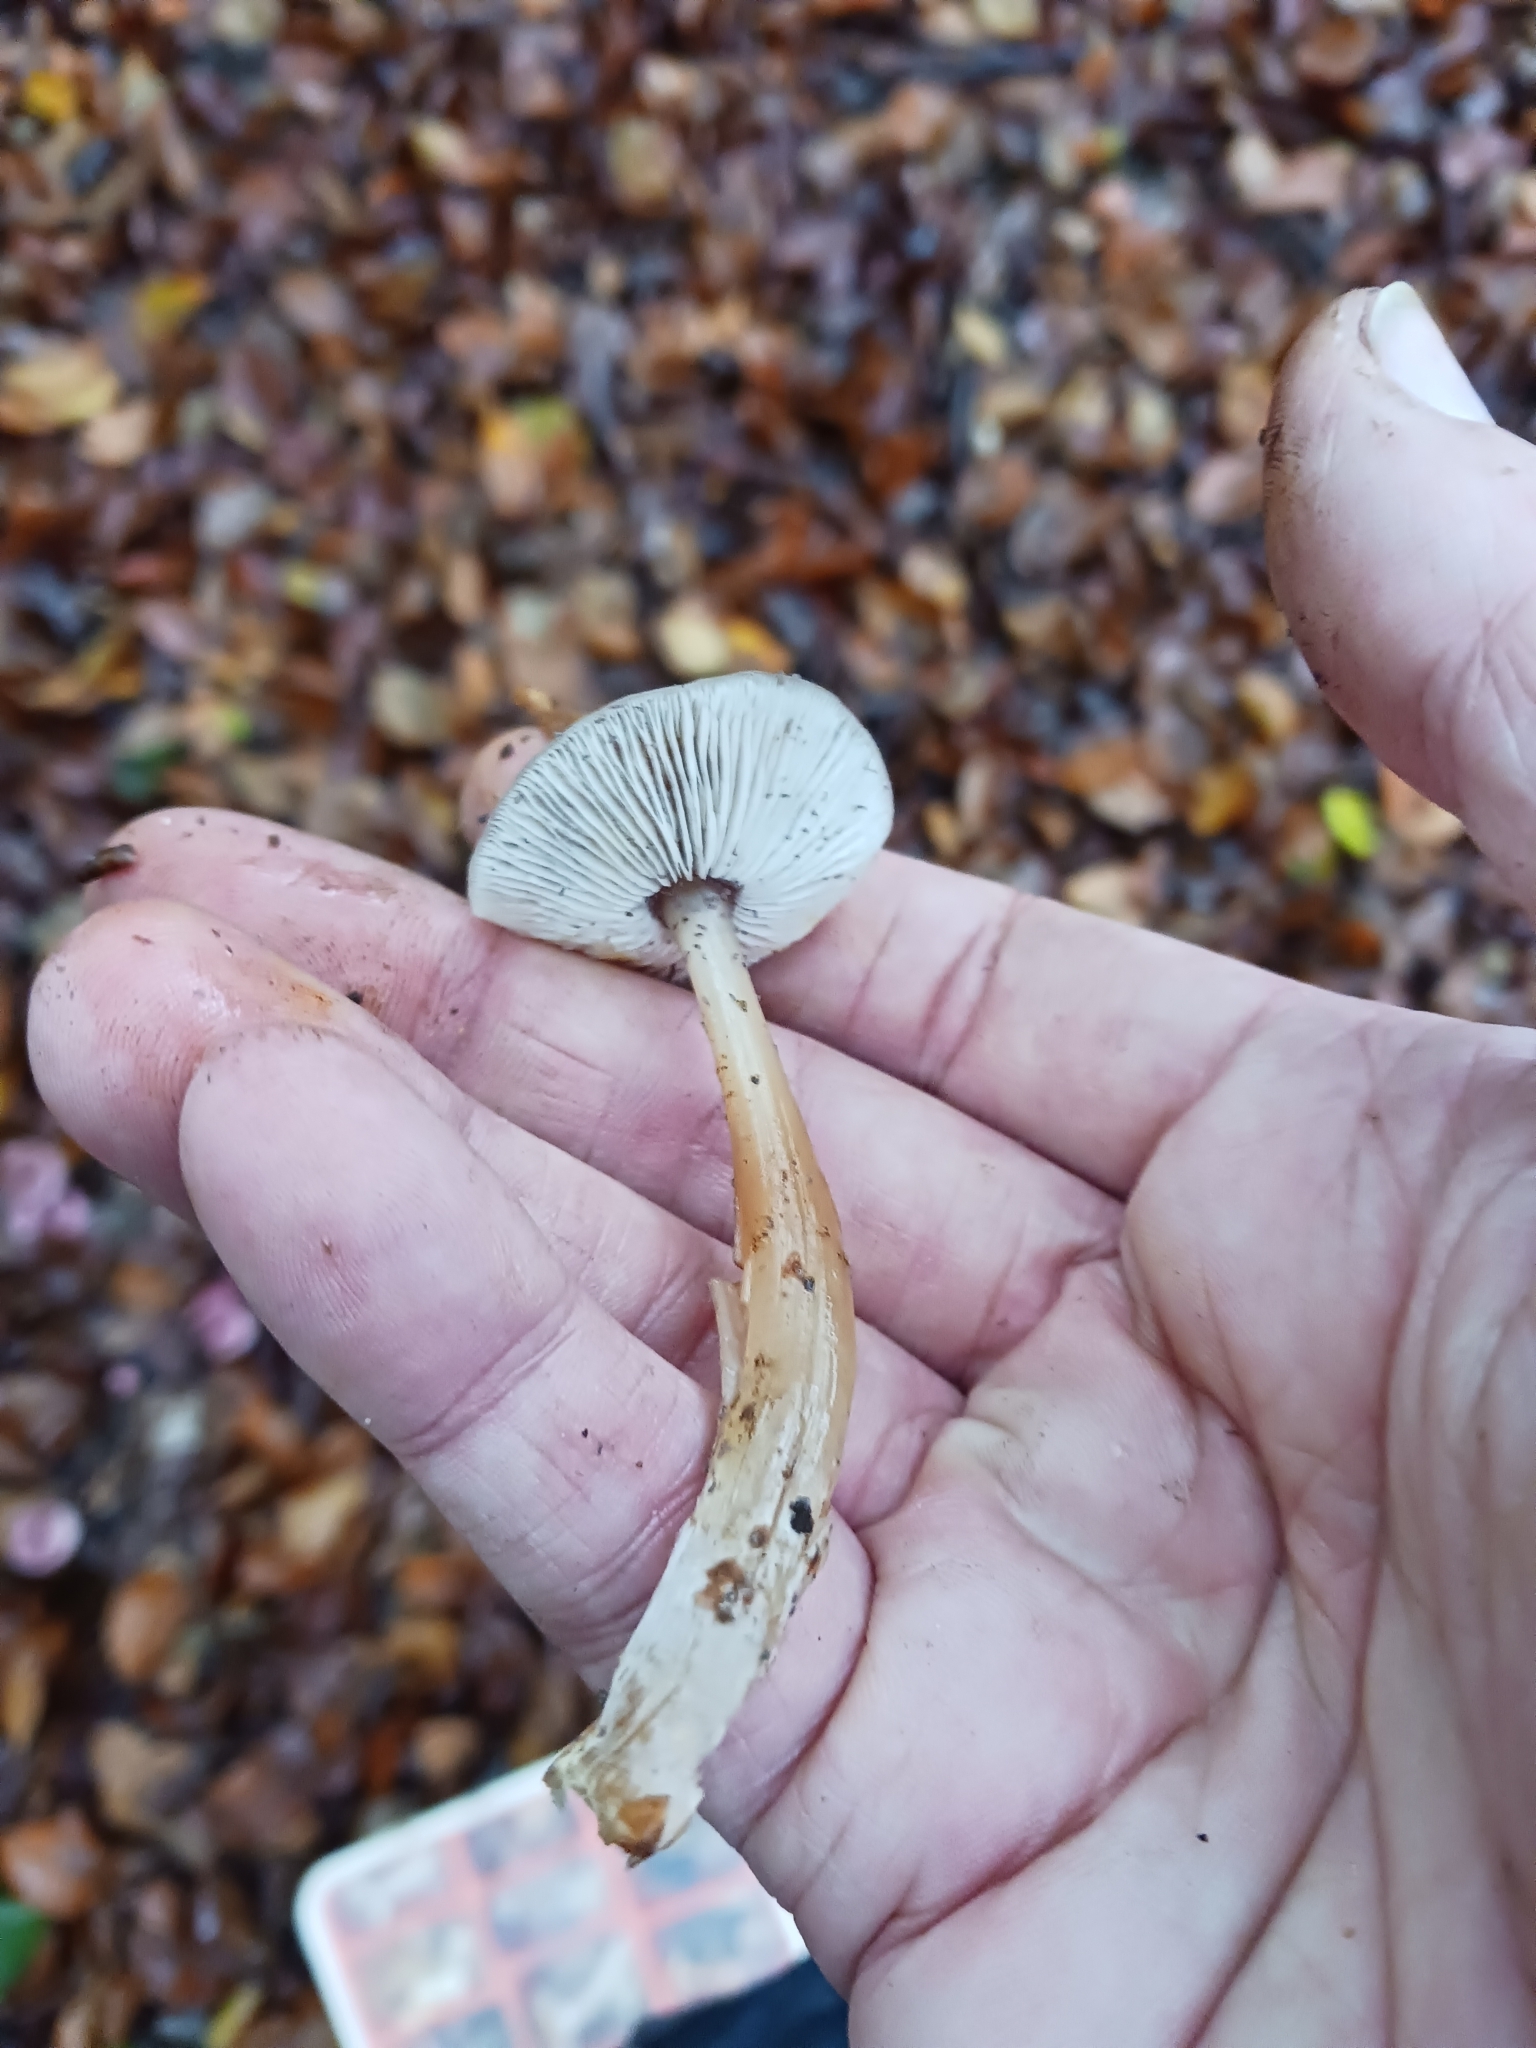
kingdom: Fungi
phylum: Basidiomycota
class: Agaricomycetes
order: Agaricales
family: Omphalotaceae
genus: Rhodocollybia
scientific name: Rhodocollybia butyracea
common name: Butter cap
